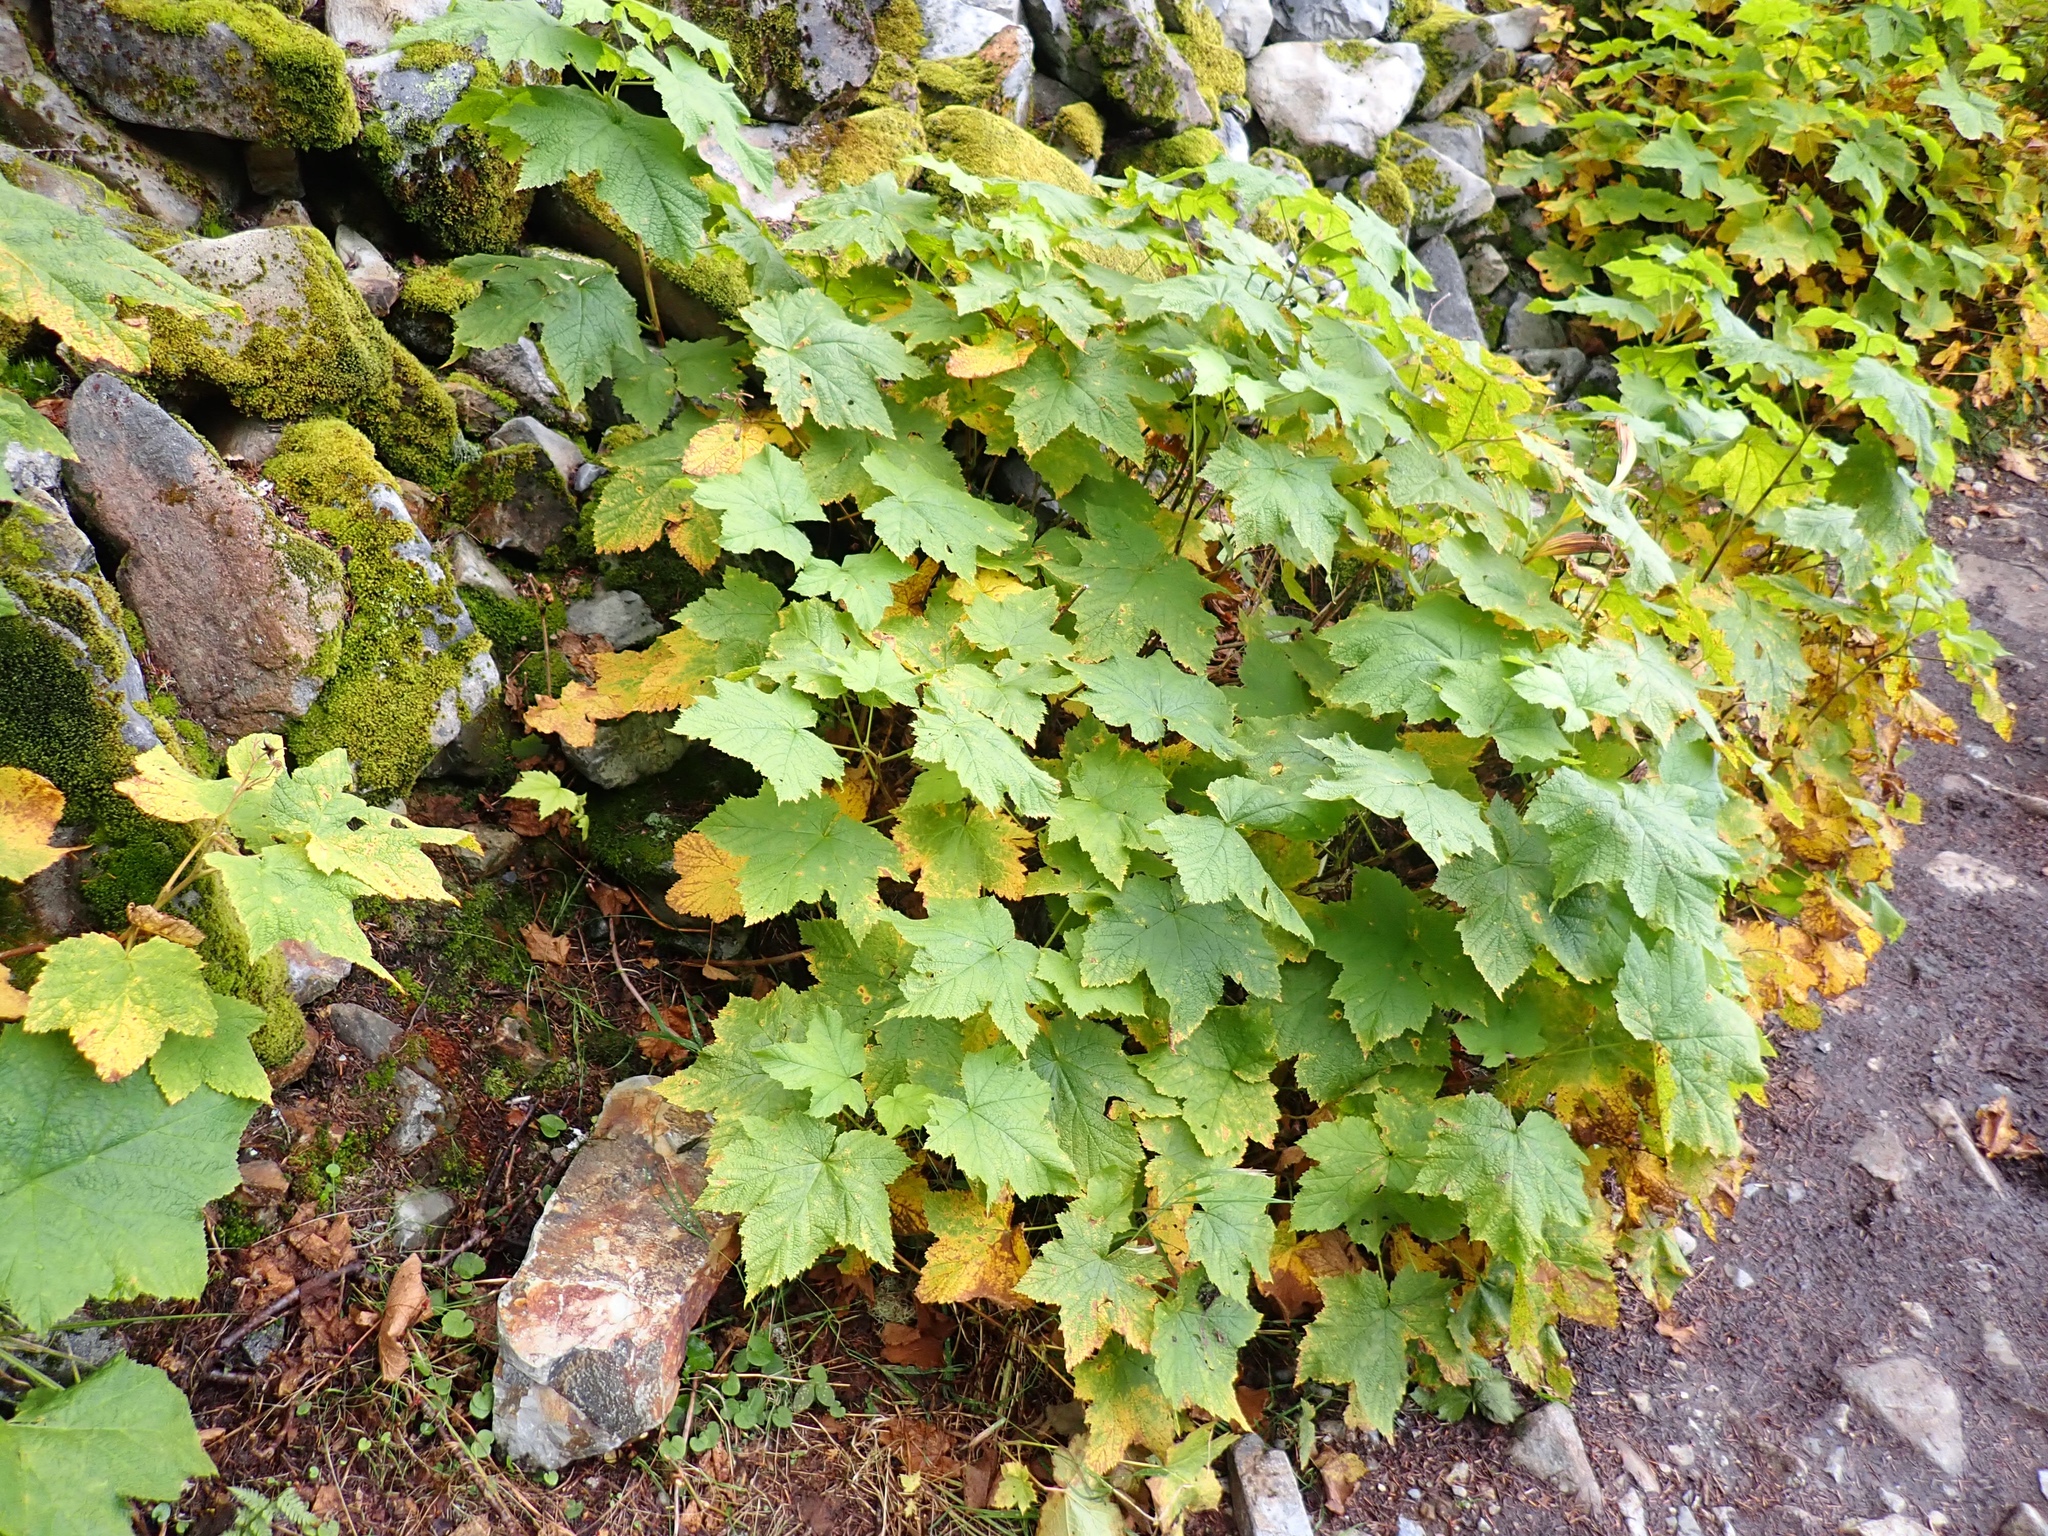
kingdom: Plantae
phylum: Tracheophyta
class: Magnoliopsida
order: Rosales
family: Rosaceae
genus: Rubus
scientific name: Rubus parviflorus
